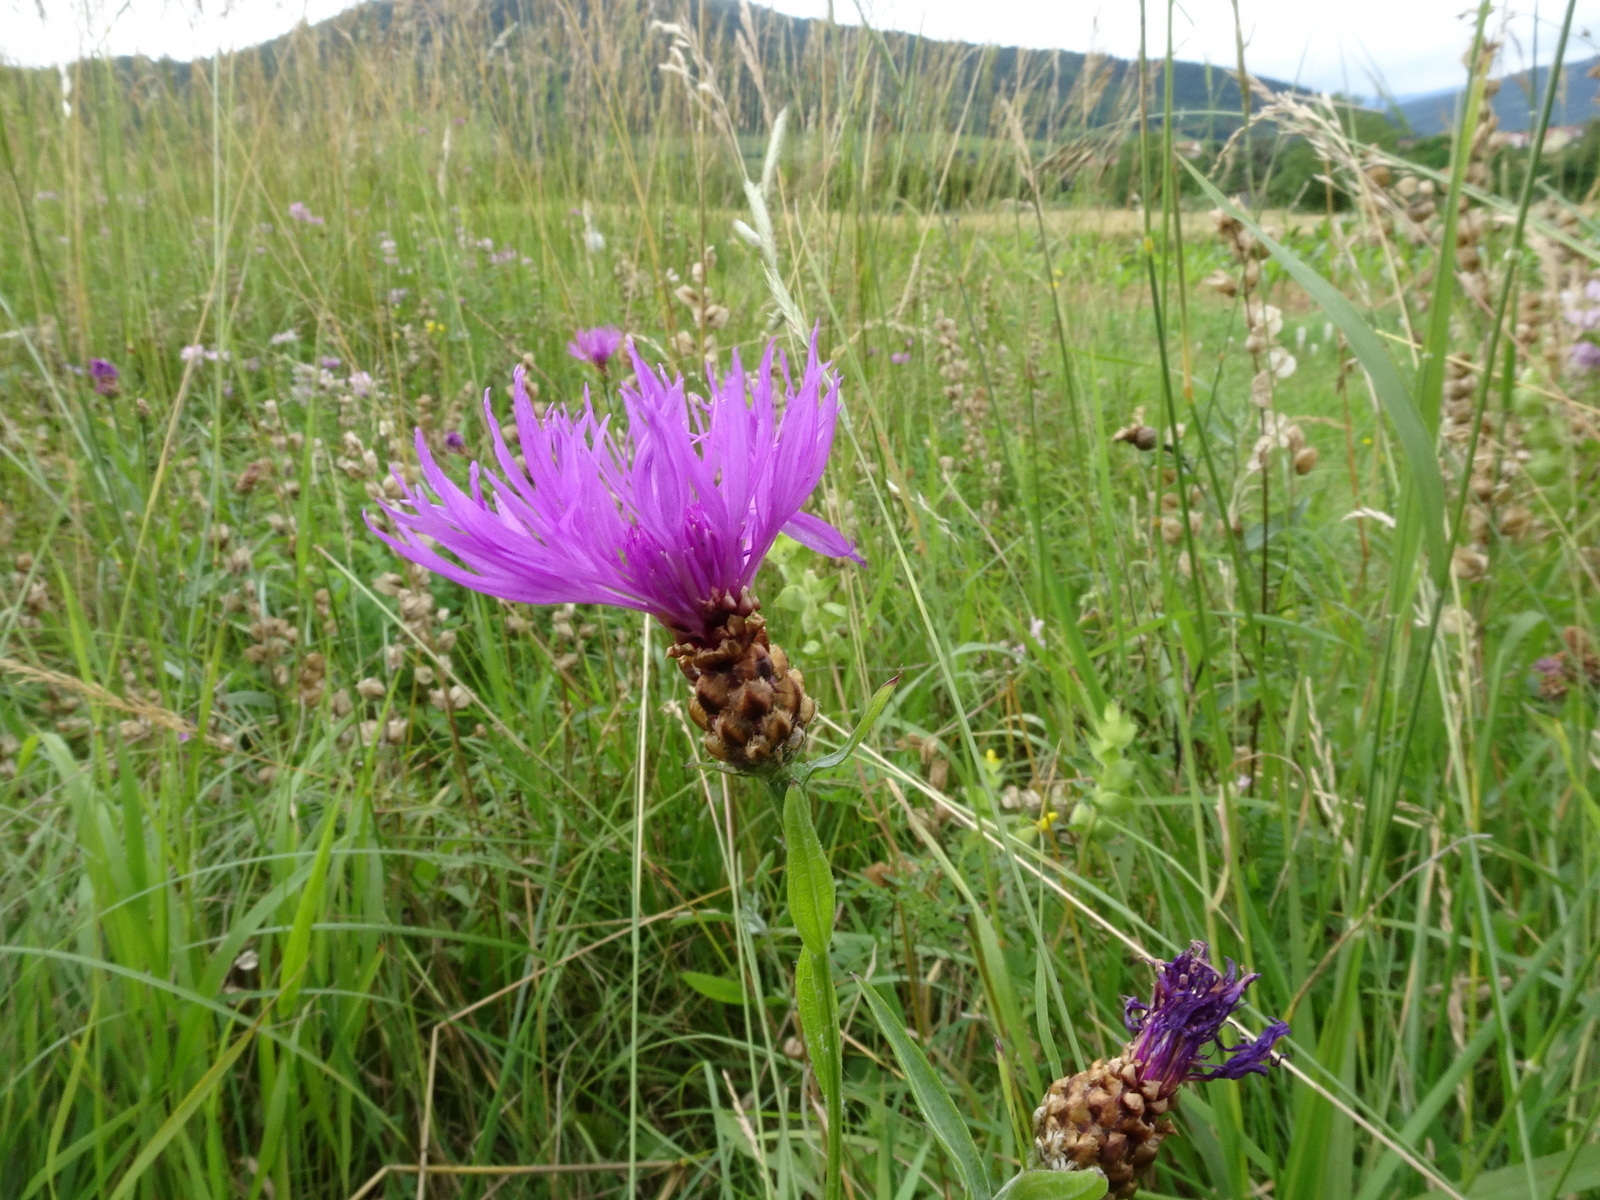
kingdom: Plantae
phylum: Tracheophyta
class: Magnoliopsida
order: Asterales
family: Asteraceae
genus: Centaurea
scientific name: Centaurea jacea
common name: Brown knapweed
